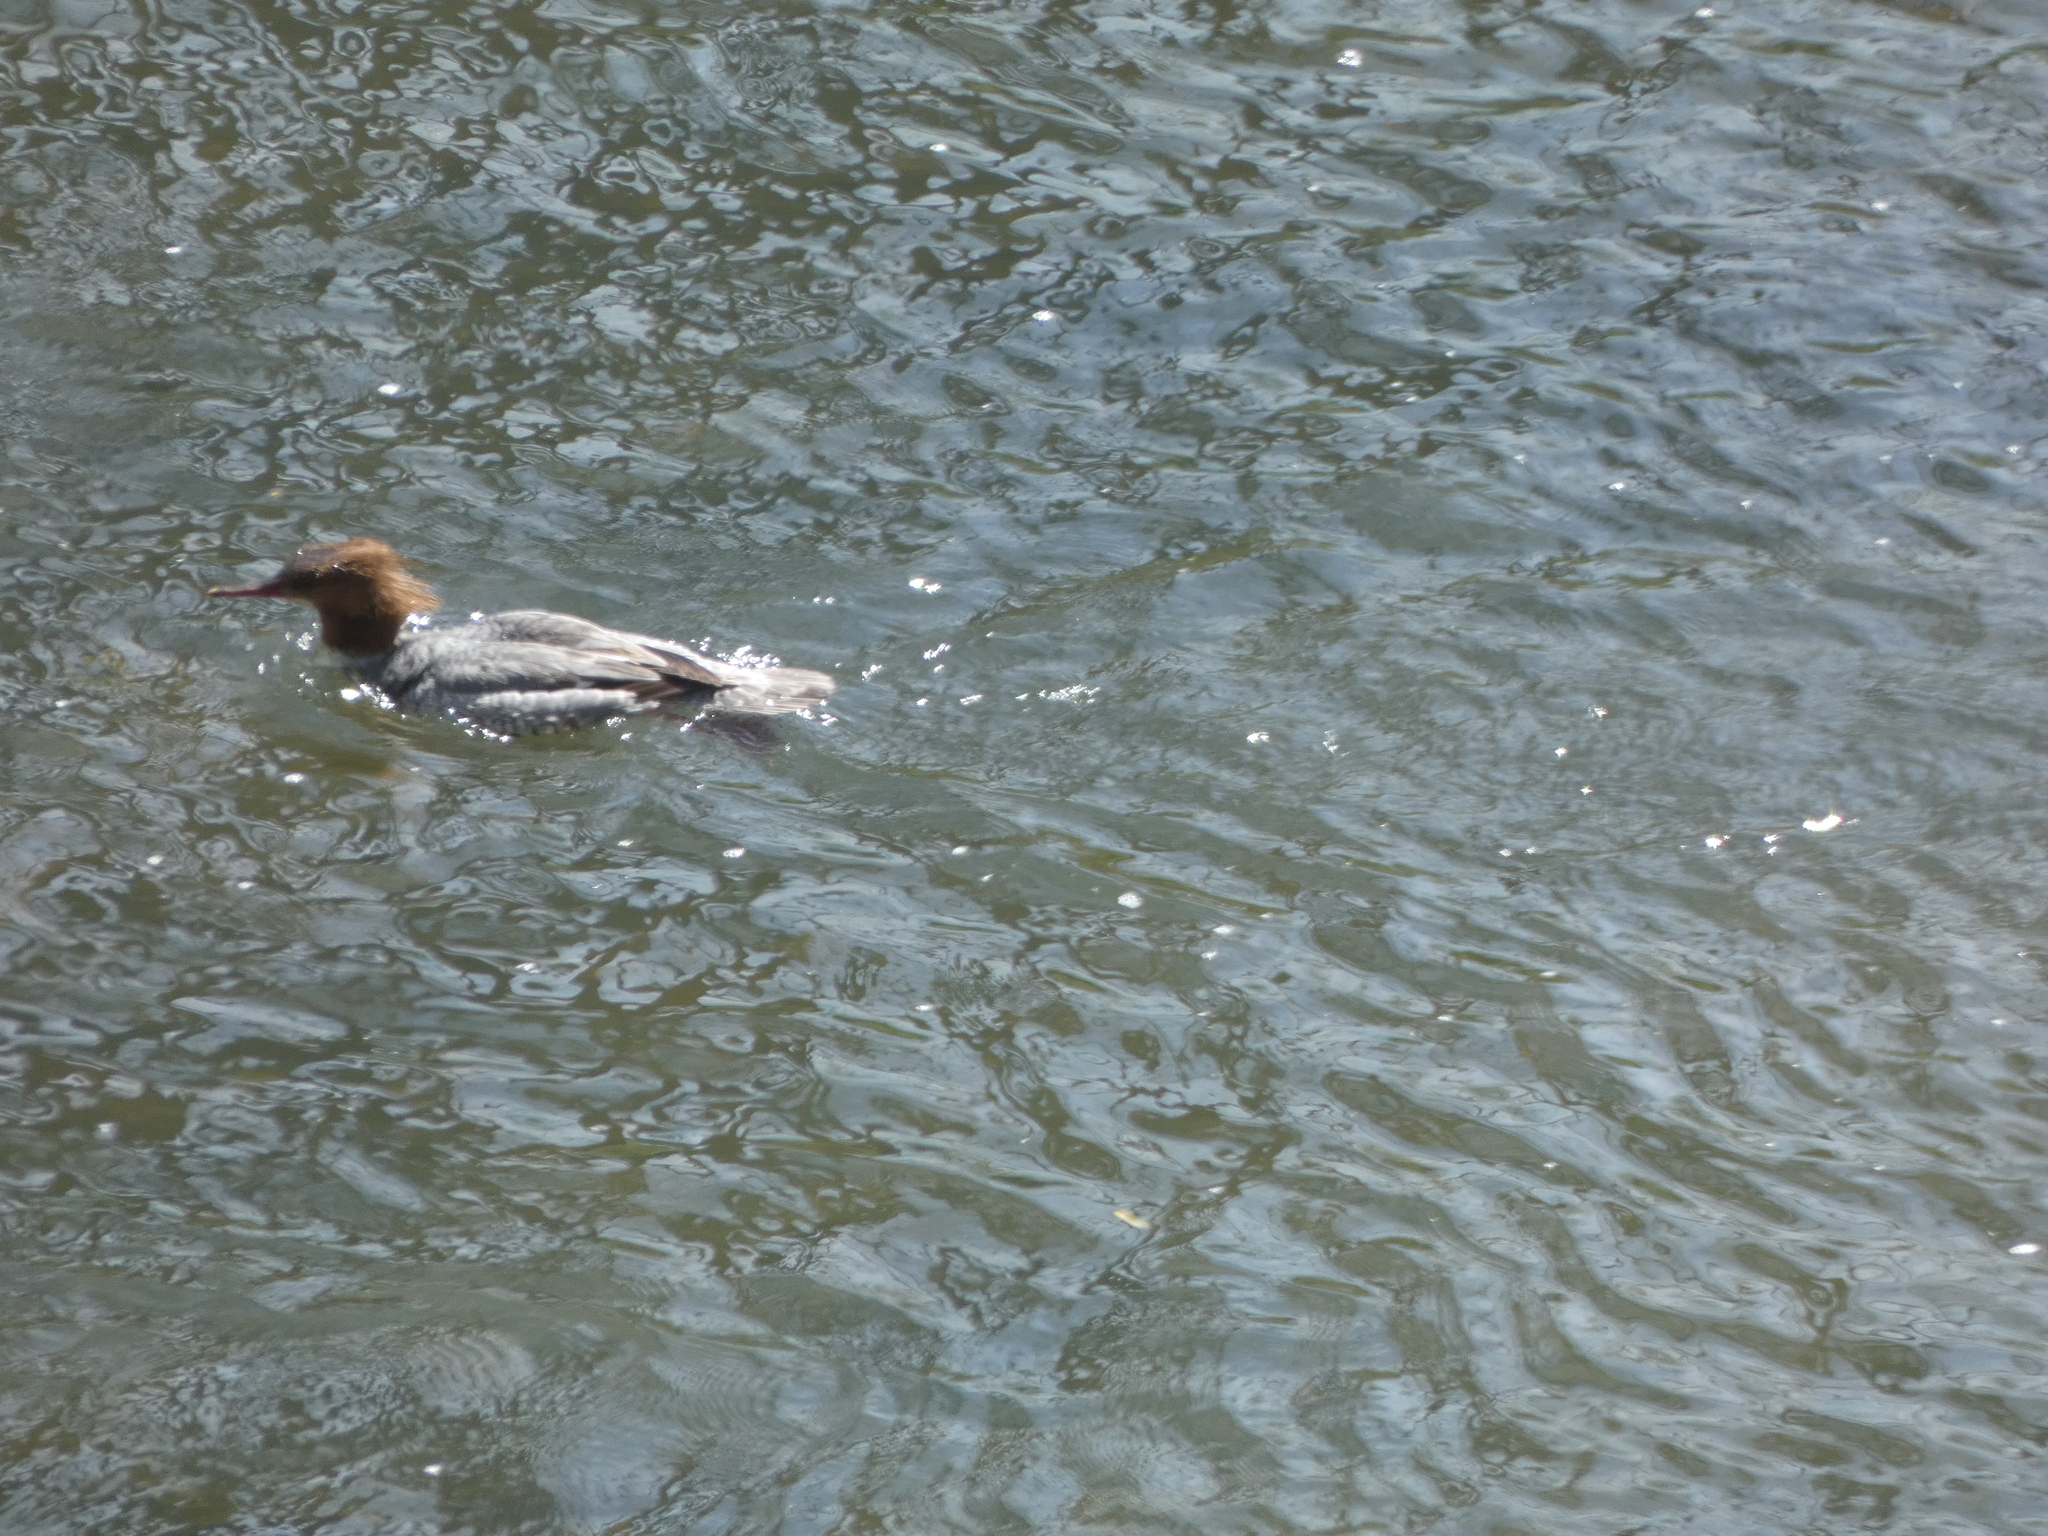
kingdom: Animalia
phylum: Chordata
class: Aves
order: Anseriformes
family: Anatidae
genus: Mergus
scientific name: Mergus merganser
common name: Common merganser
